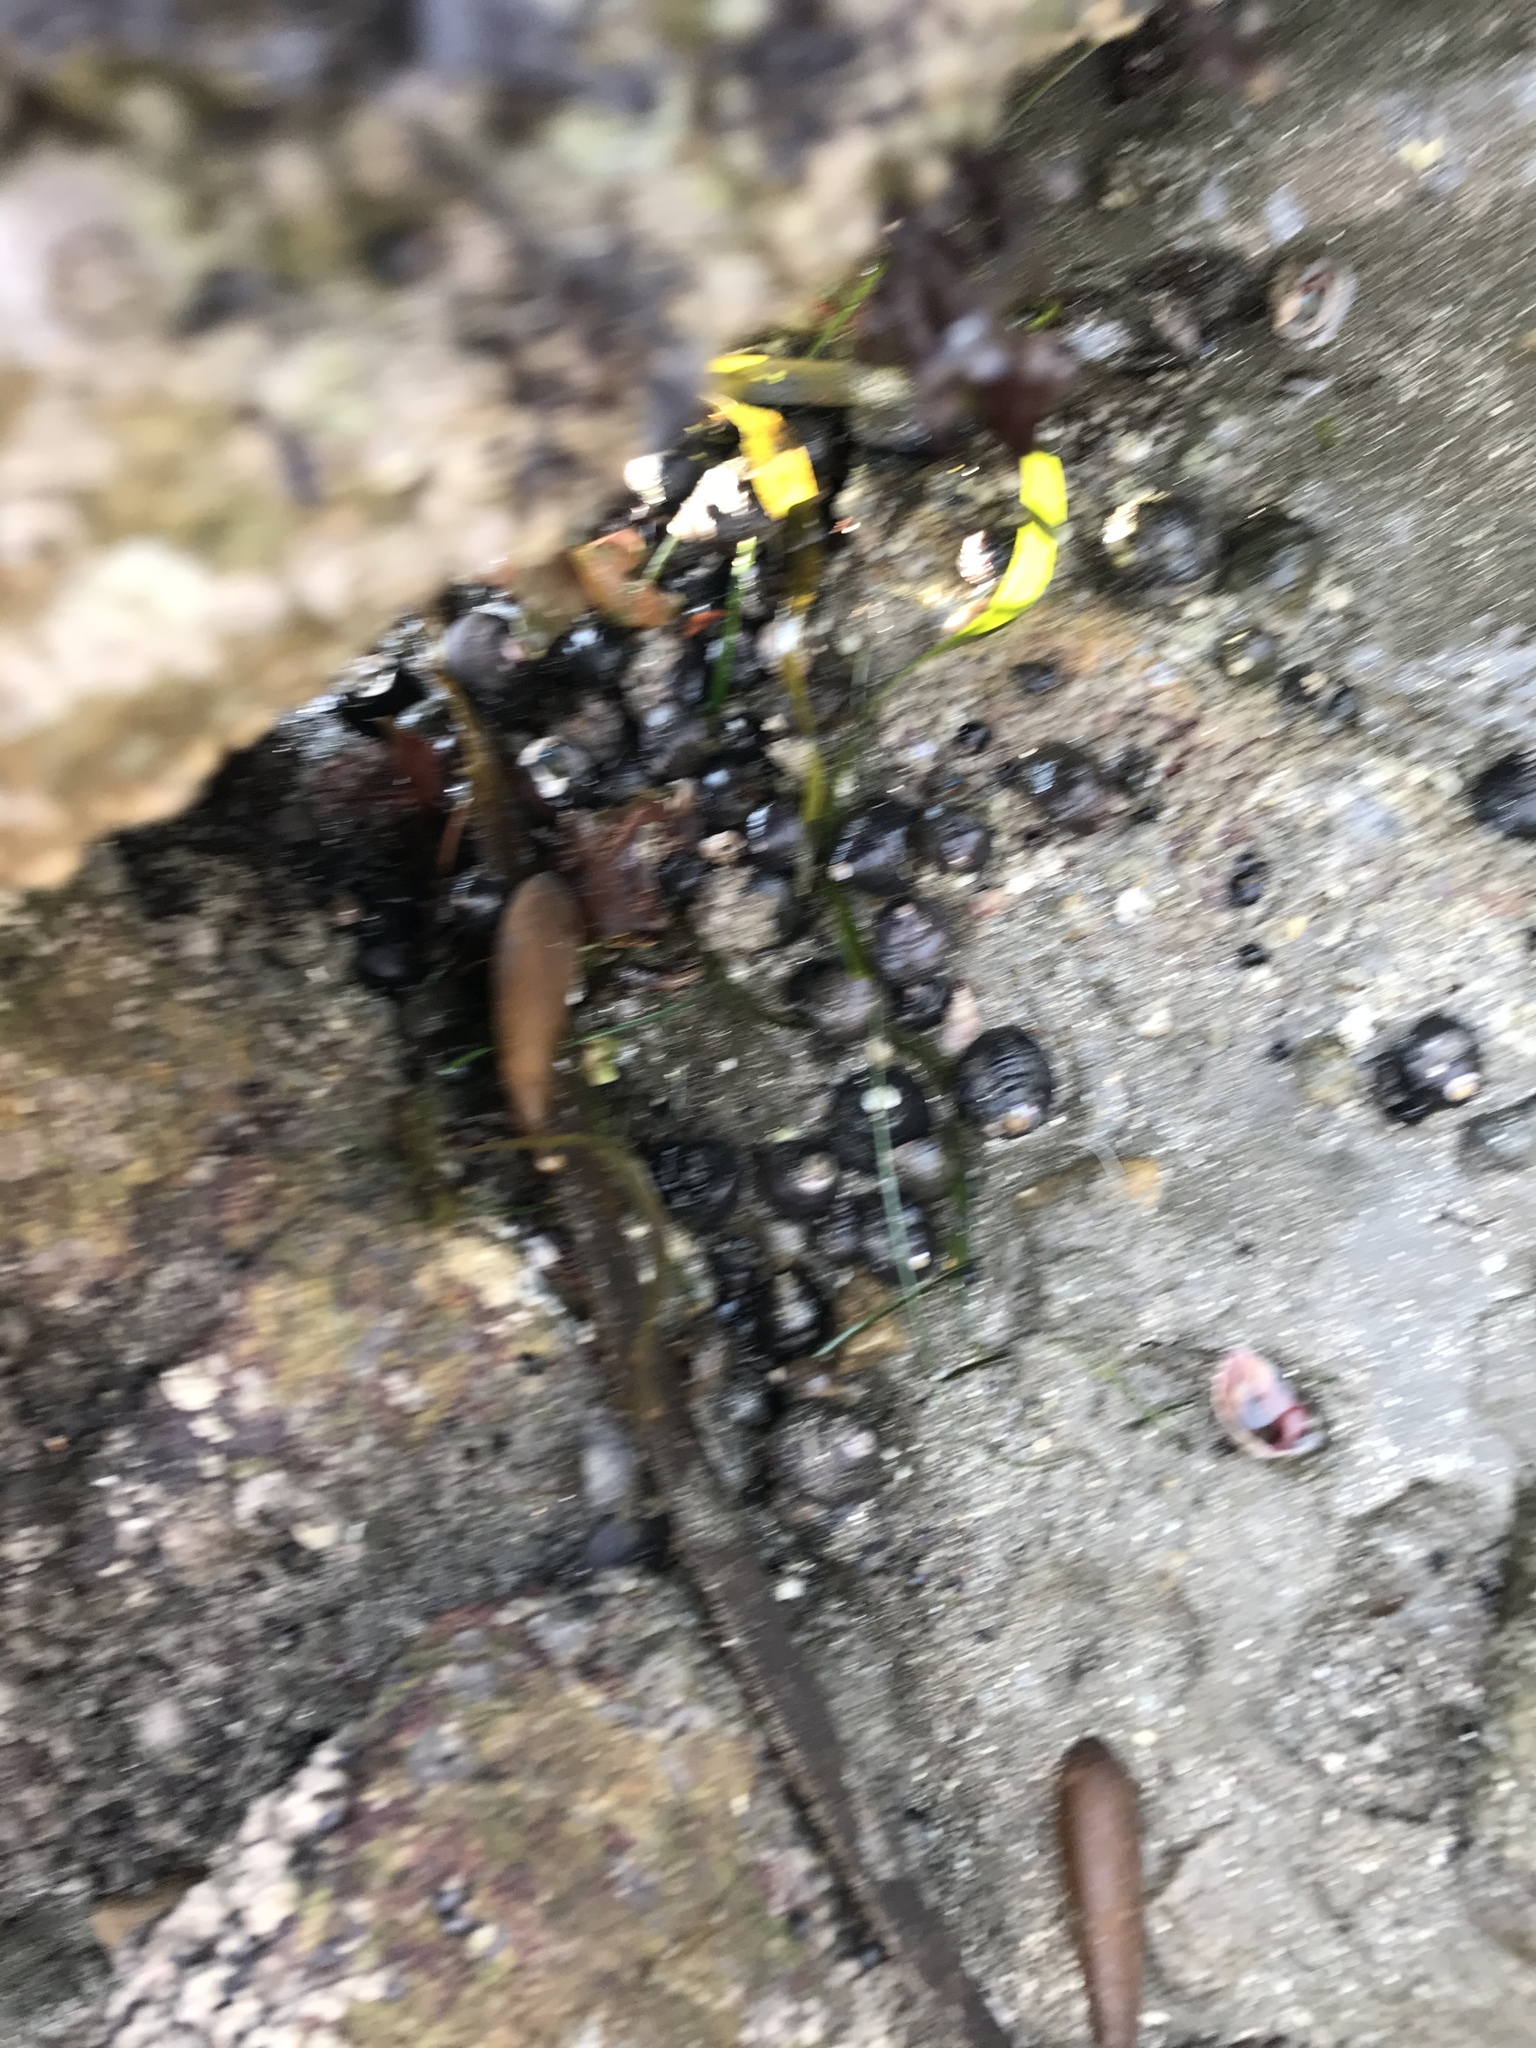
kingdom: Animalia
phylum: Mollusca
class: Gastropoda
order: Trochida
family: Tegulidae
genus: Tegula
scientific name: Tegula funebralis
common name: Black tegula
